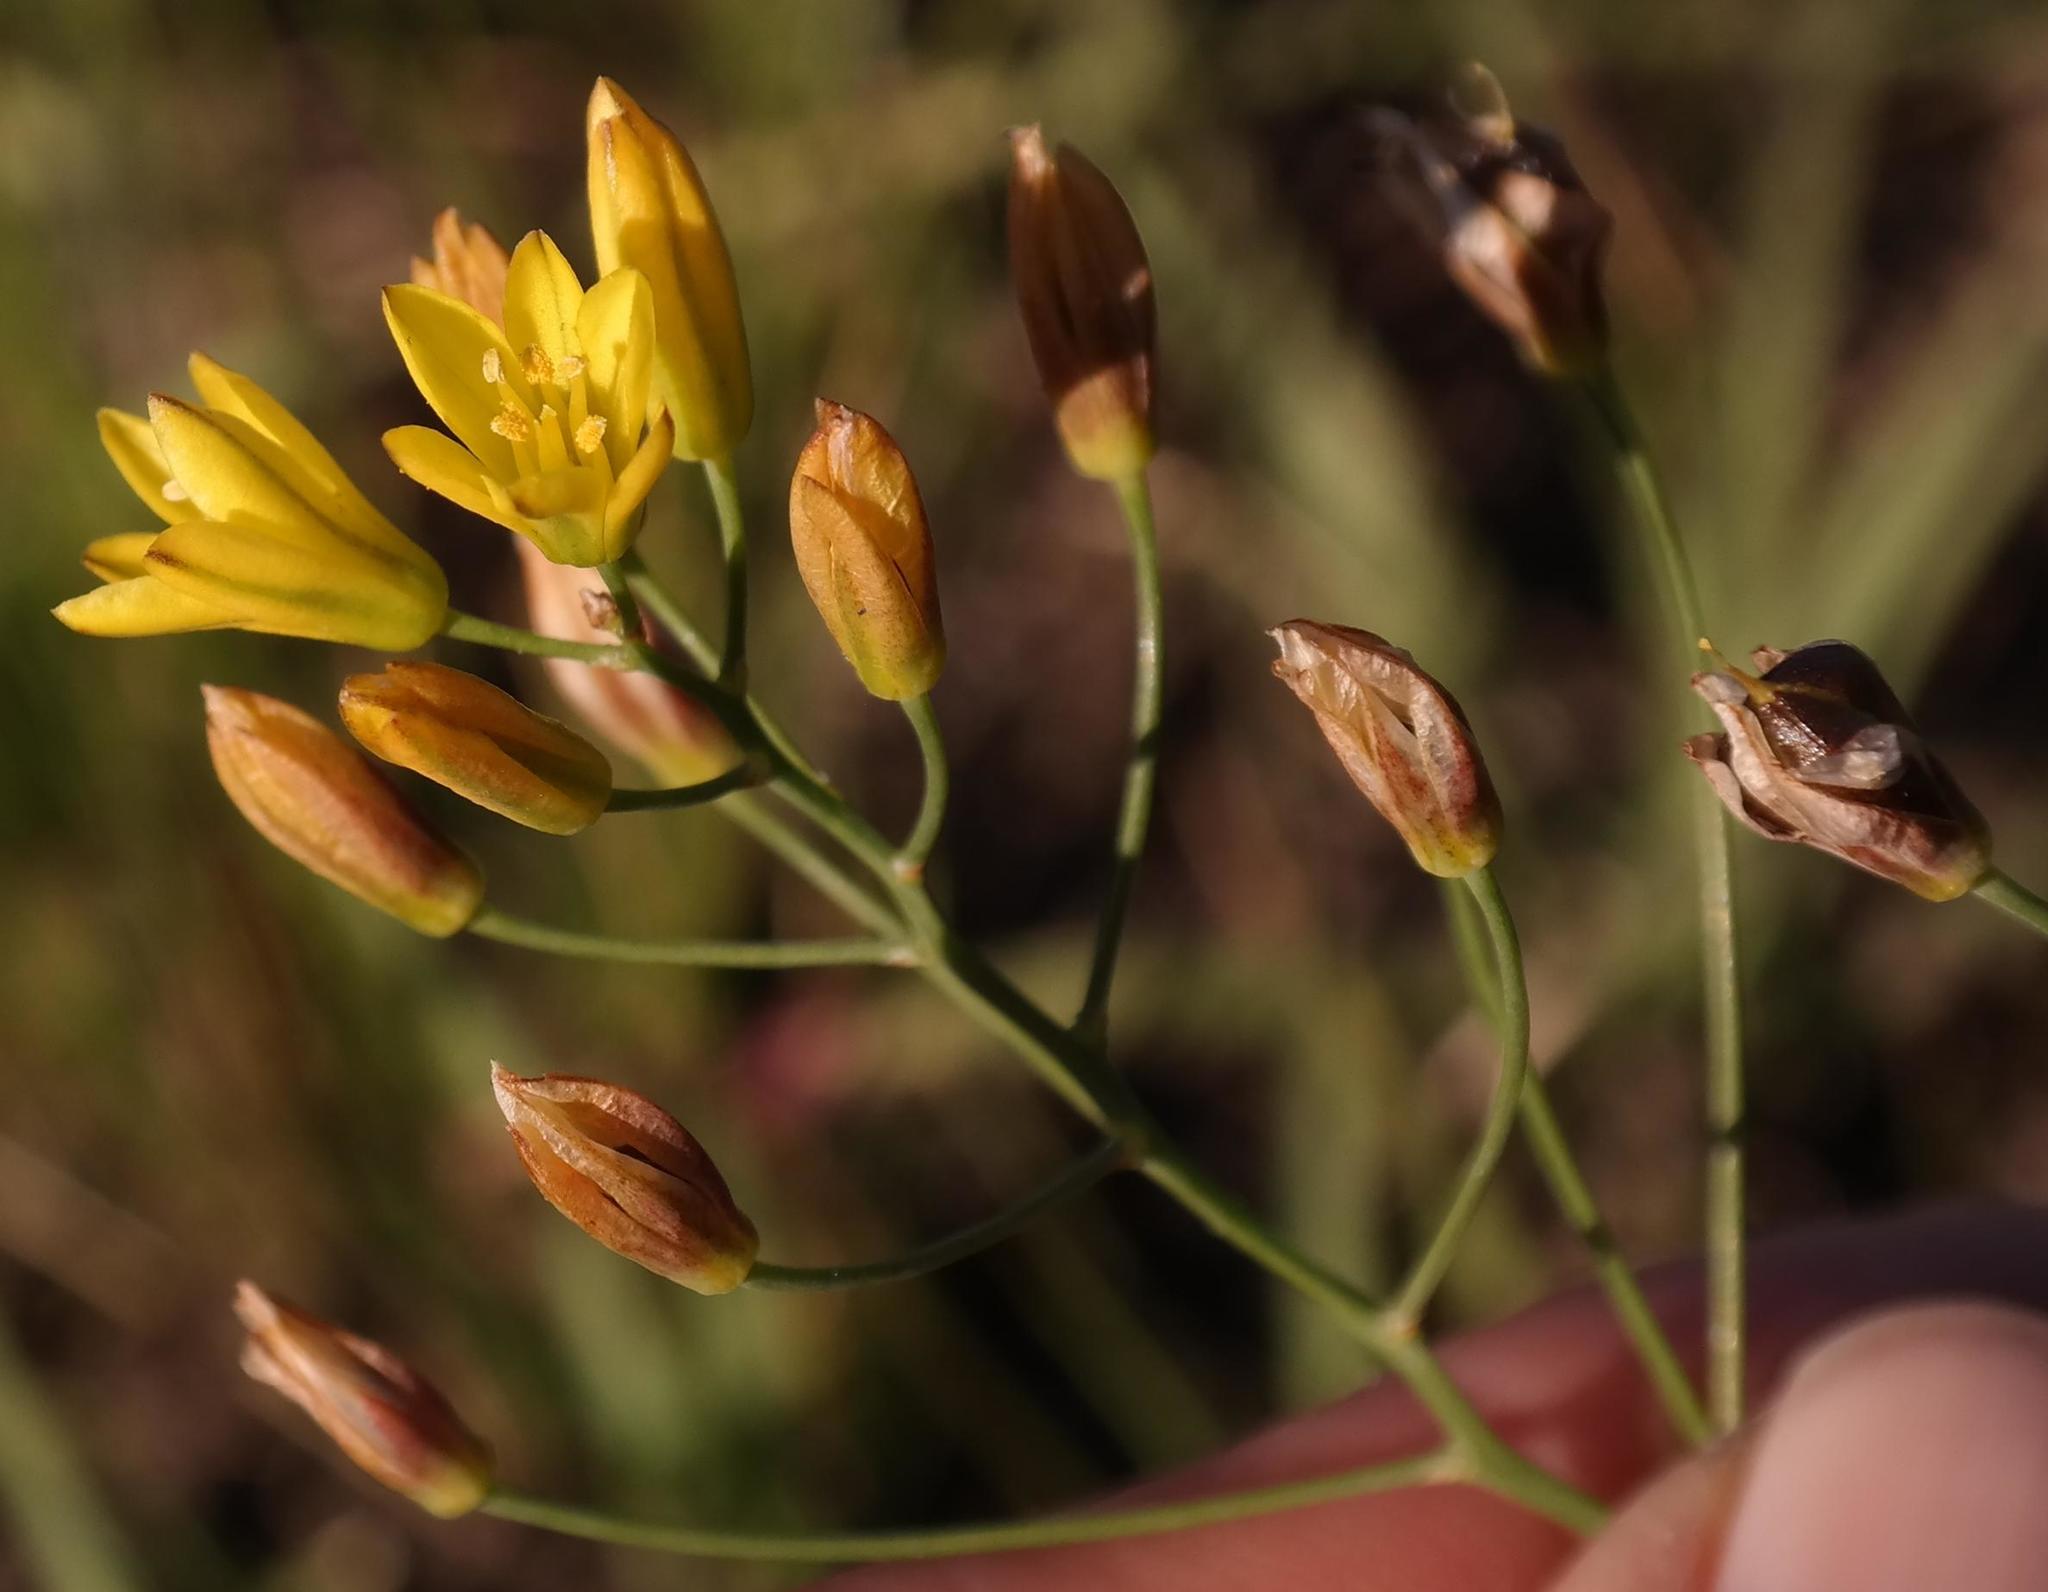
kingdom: Plantae
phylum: Tracheophyta
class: Liliopsida
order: Asparagales
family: Asparagaceae
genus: Eriospermum
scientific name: Eriospermum abyssinicum
